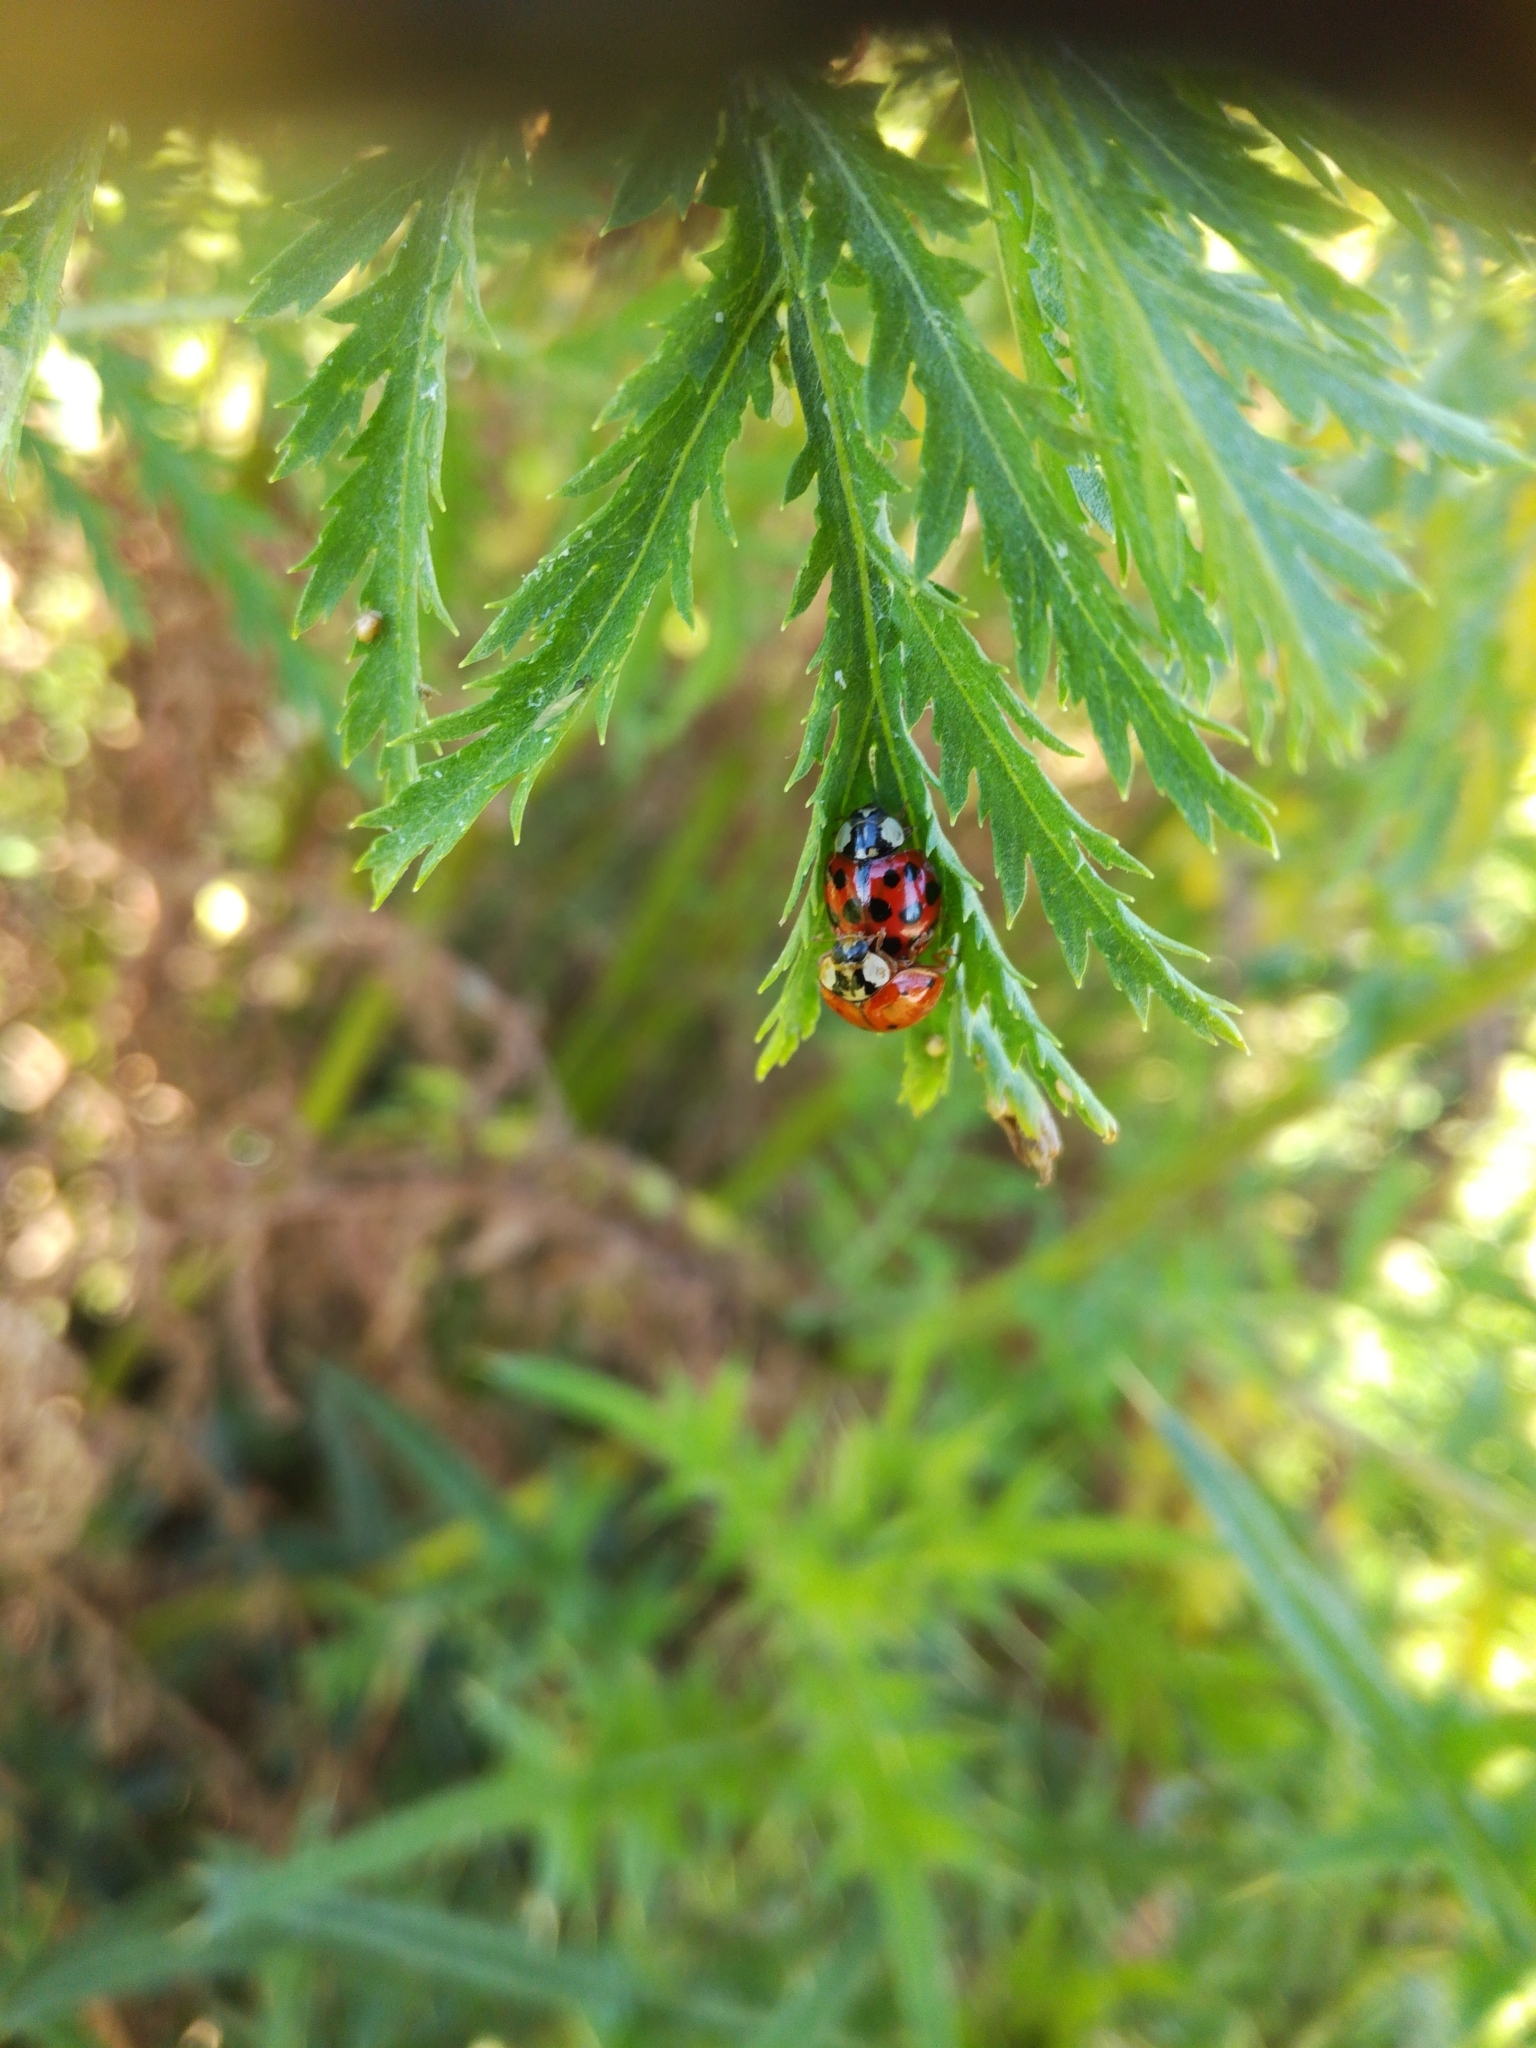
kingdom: Animalia
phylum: Arthropoda
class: Insecta
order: Coleoptera
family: Coccinellidae
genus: Harmonia
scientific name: Harmonia axyridis
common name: Harlequin ladybird
